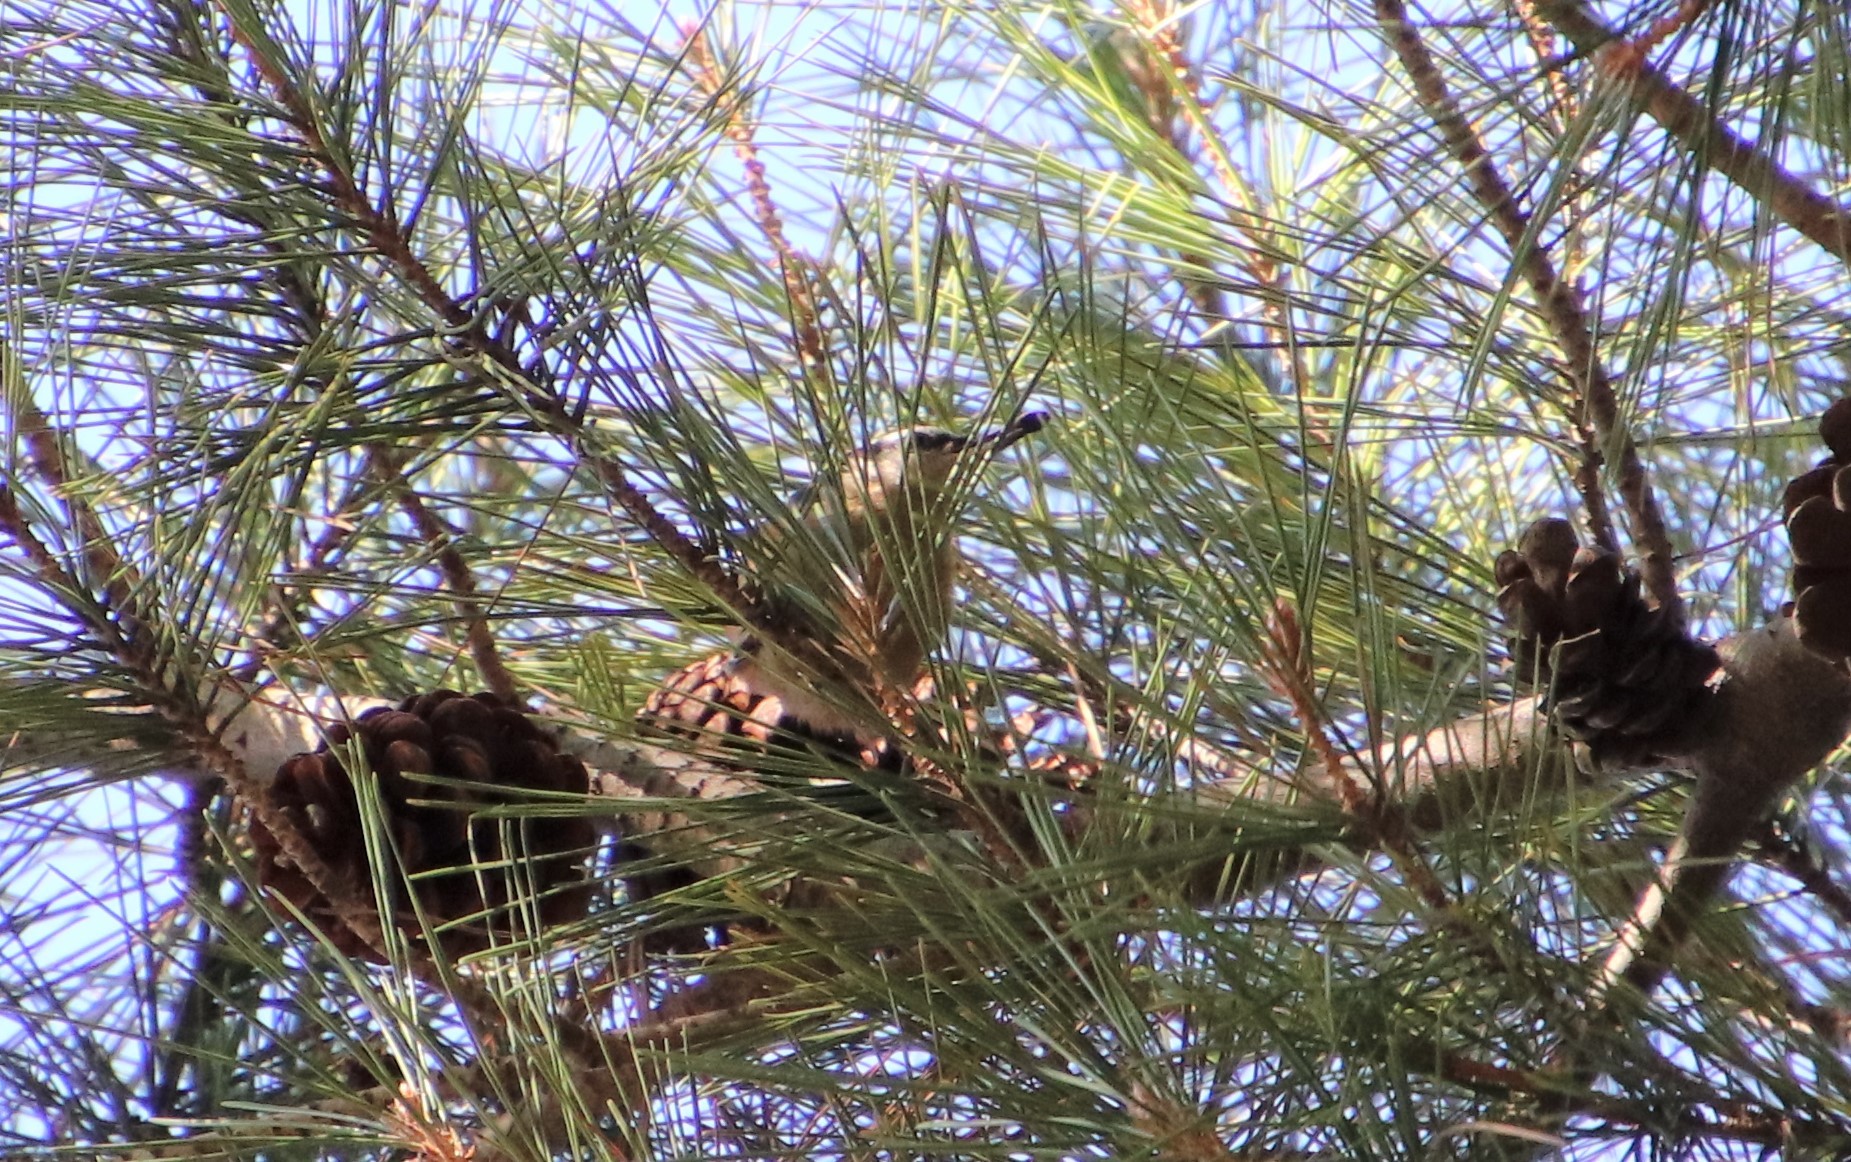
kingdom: Animalia
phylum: Chordata
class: Aves
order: Passeriformes
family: Sittidae
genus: Sitta
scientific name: Sitta canadensis
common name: Red-breasted nuthatch
